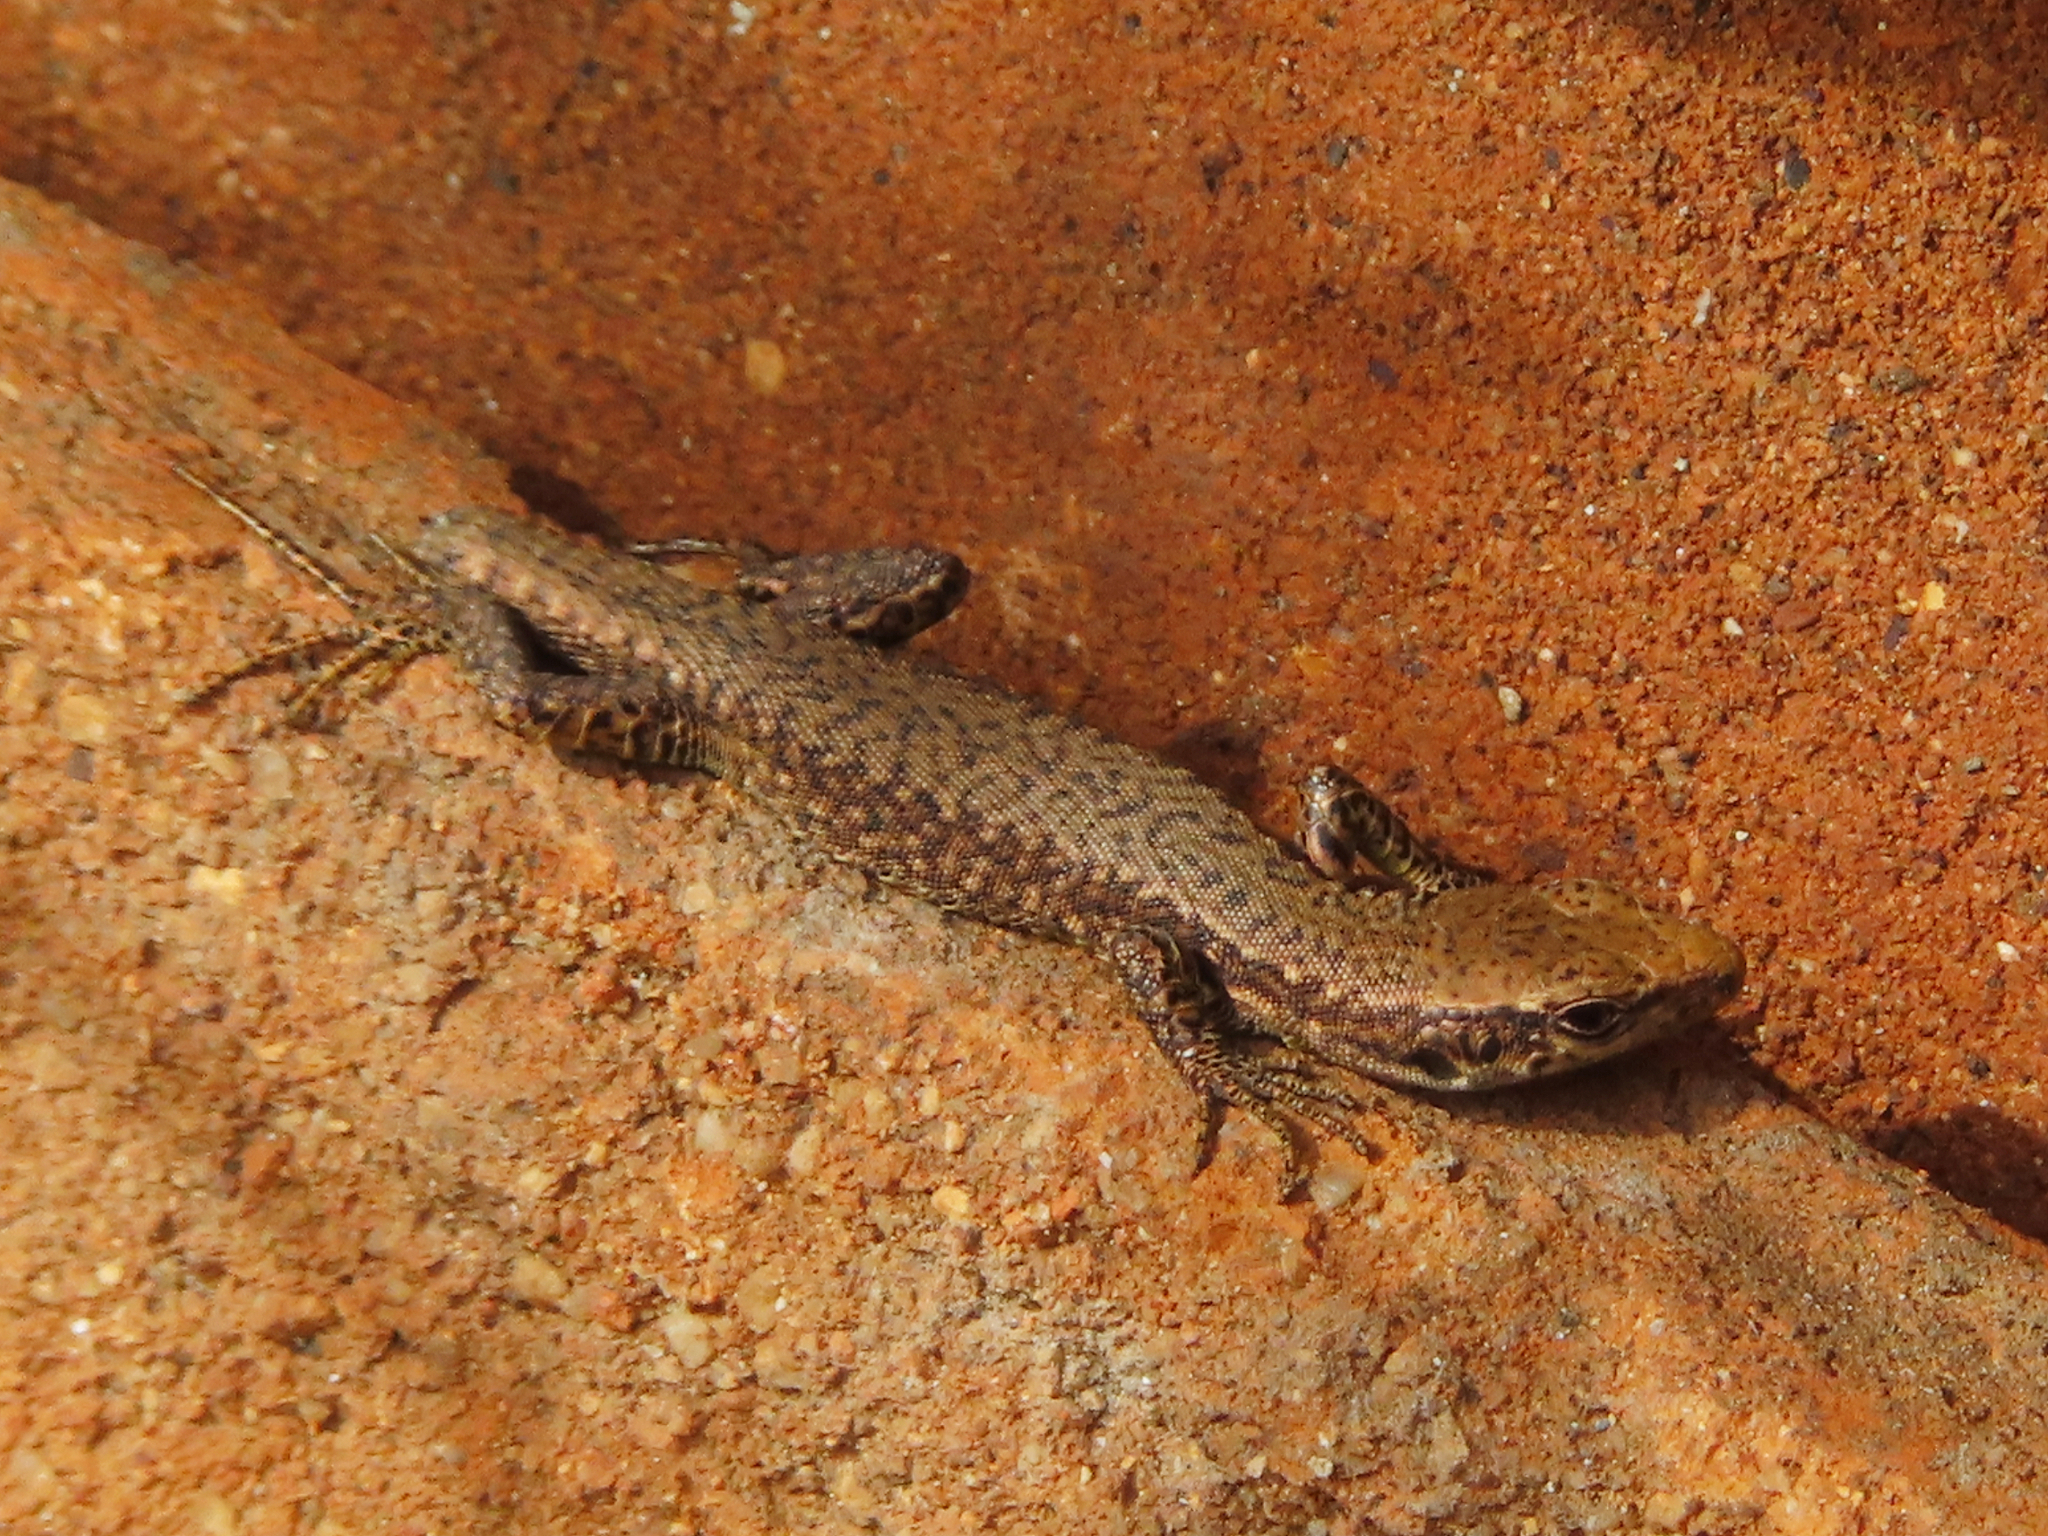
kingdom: Animalia
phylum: Chordata
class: Squamata
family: Lacertidae
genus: Darevskia
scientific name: Darevskia mixta
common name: Ajarian lizard
